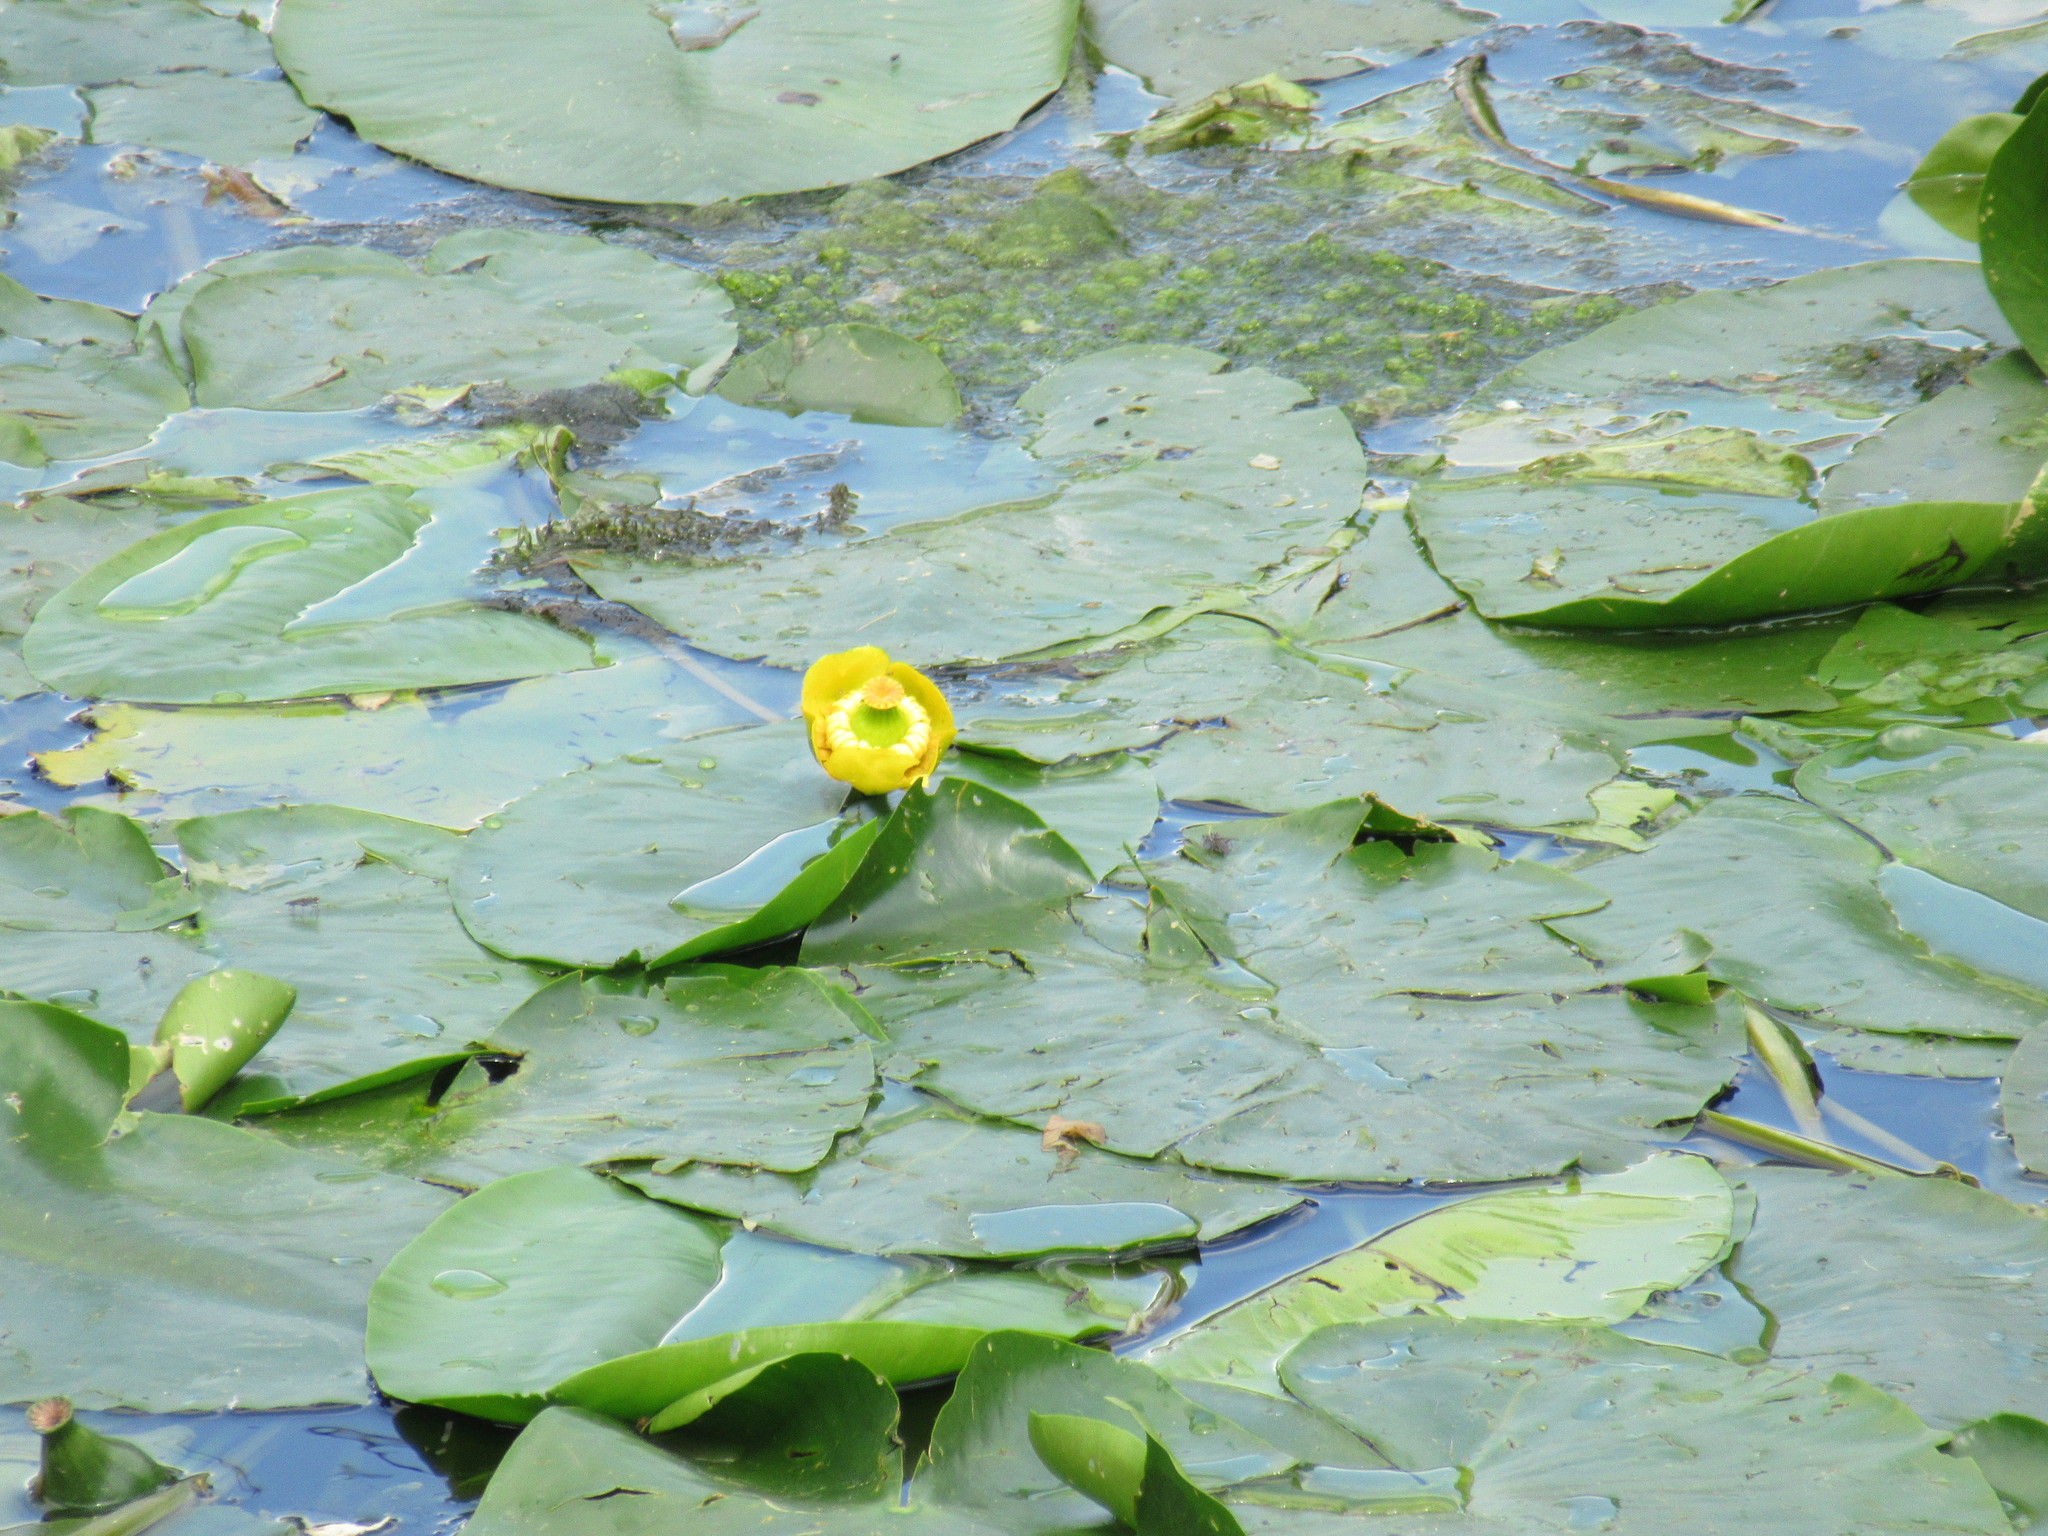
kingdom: Plantae
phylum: Tracheophyta
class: Magnoliopsida
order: Nymphaeales
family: Nymphaeaceae
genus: Nuphar
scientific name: Nuphar lutea
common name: Yellow water-lily
